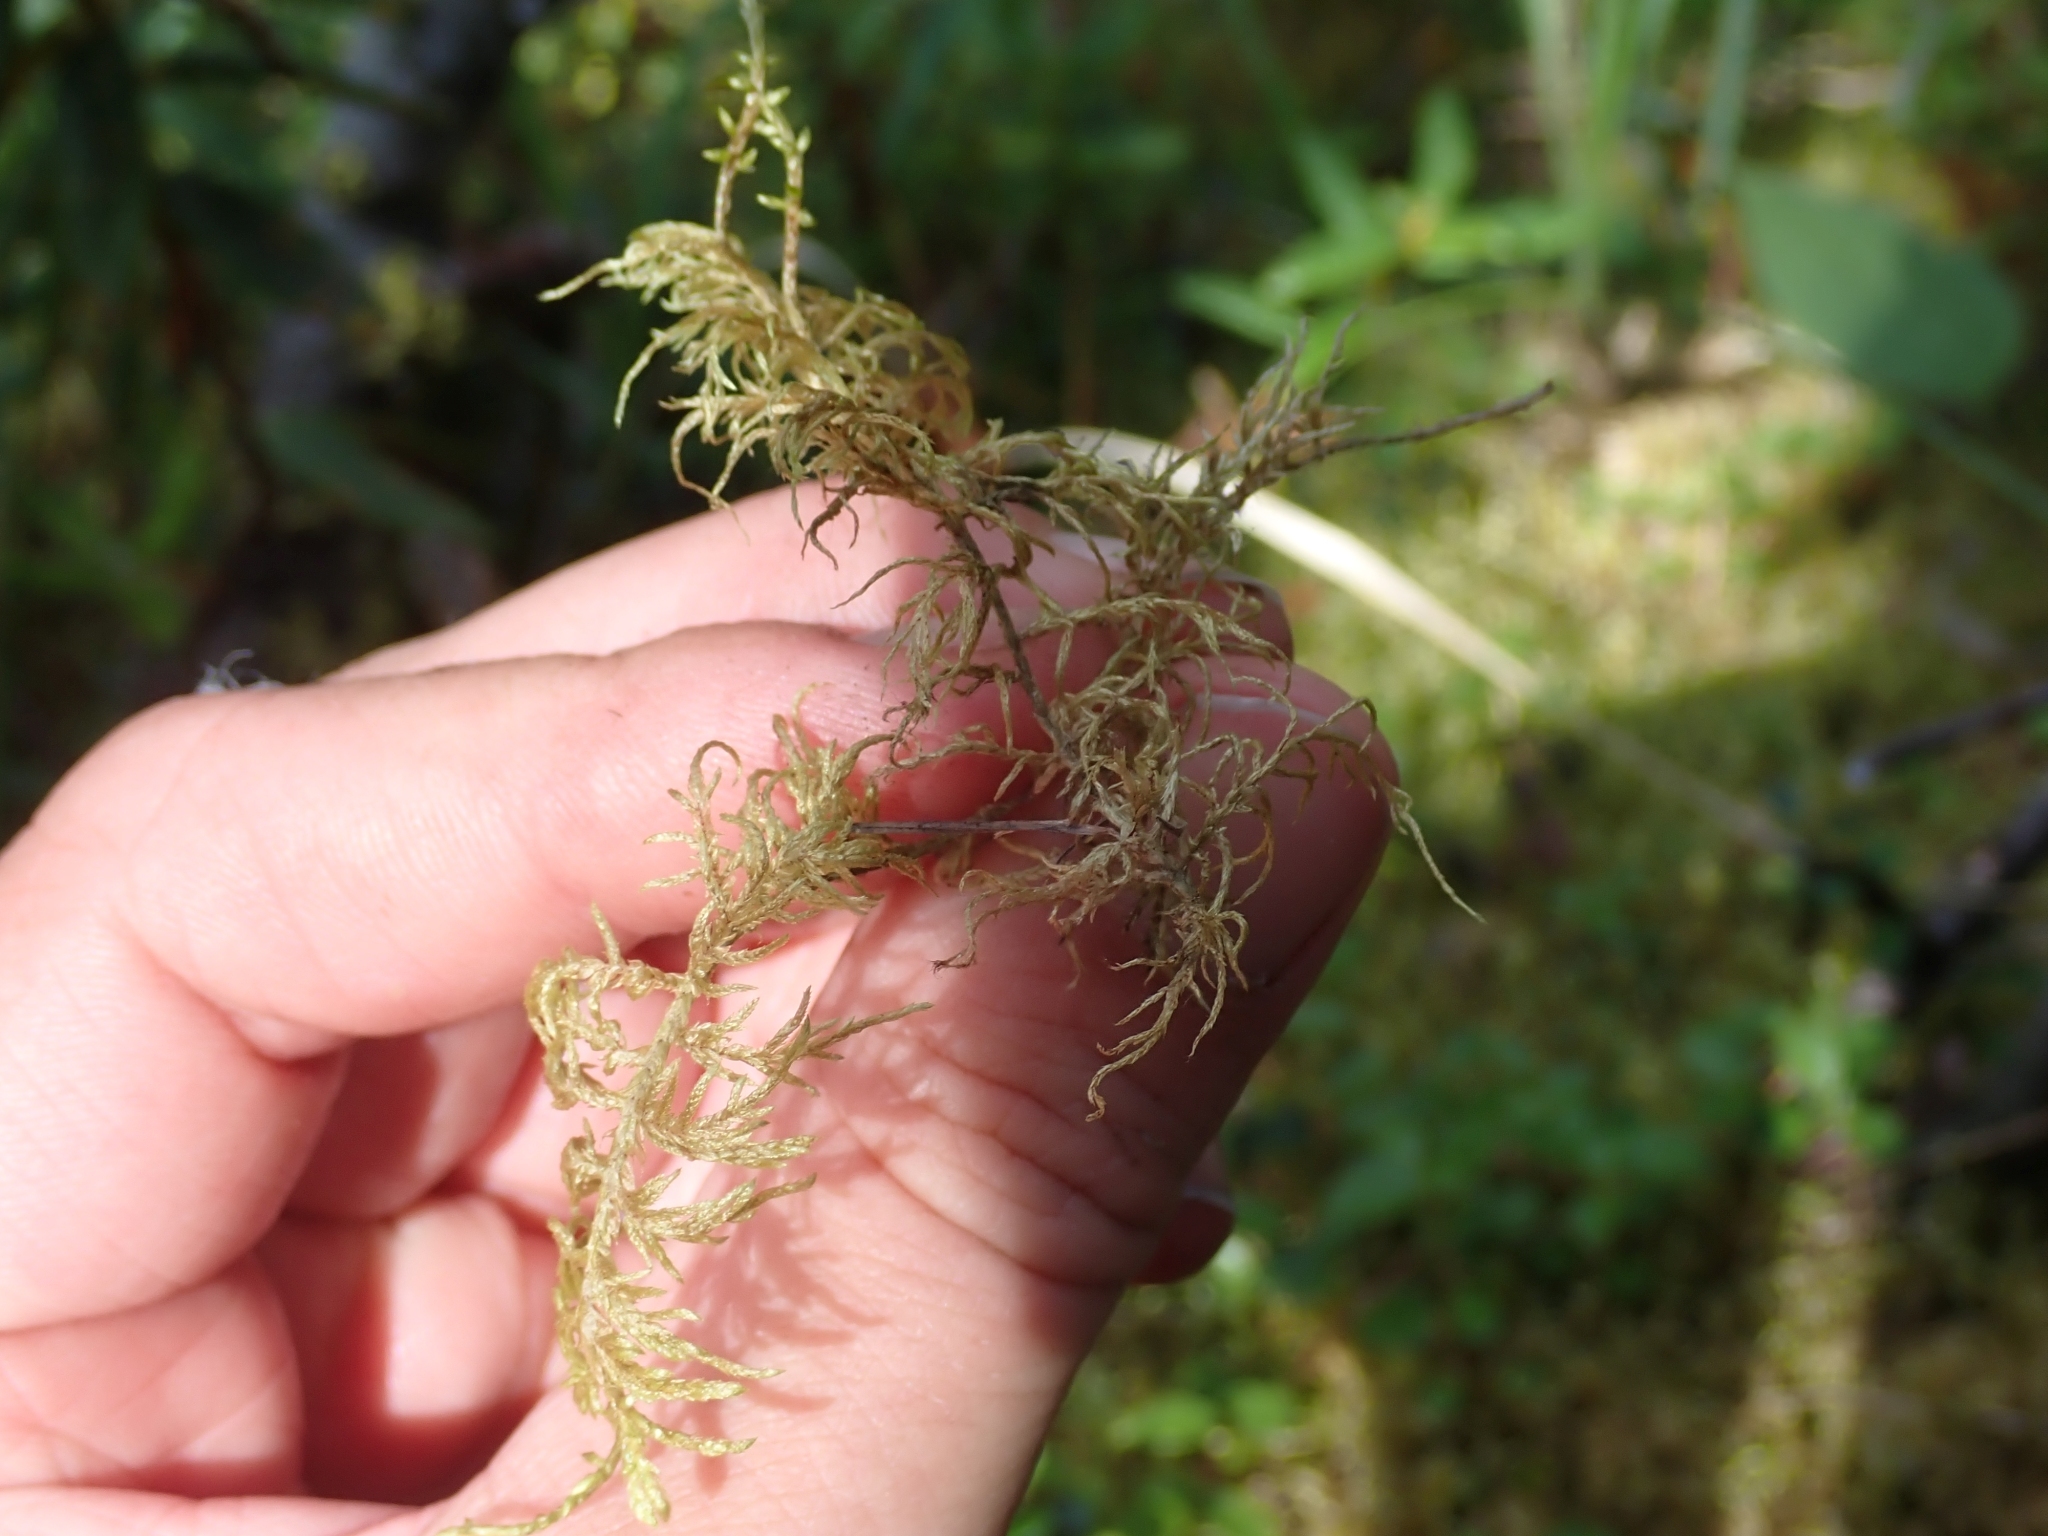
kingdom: Plantae
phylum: Bryophyta
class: Bryopsida
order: Hypnales
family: Hylocomiaceae
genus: Hylocomium
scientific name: Hylocomium splendens
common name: Stairstep moss
